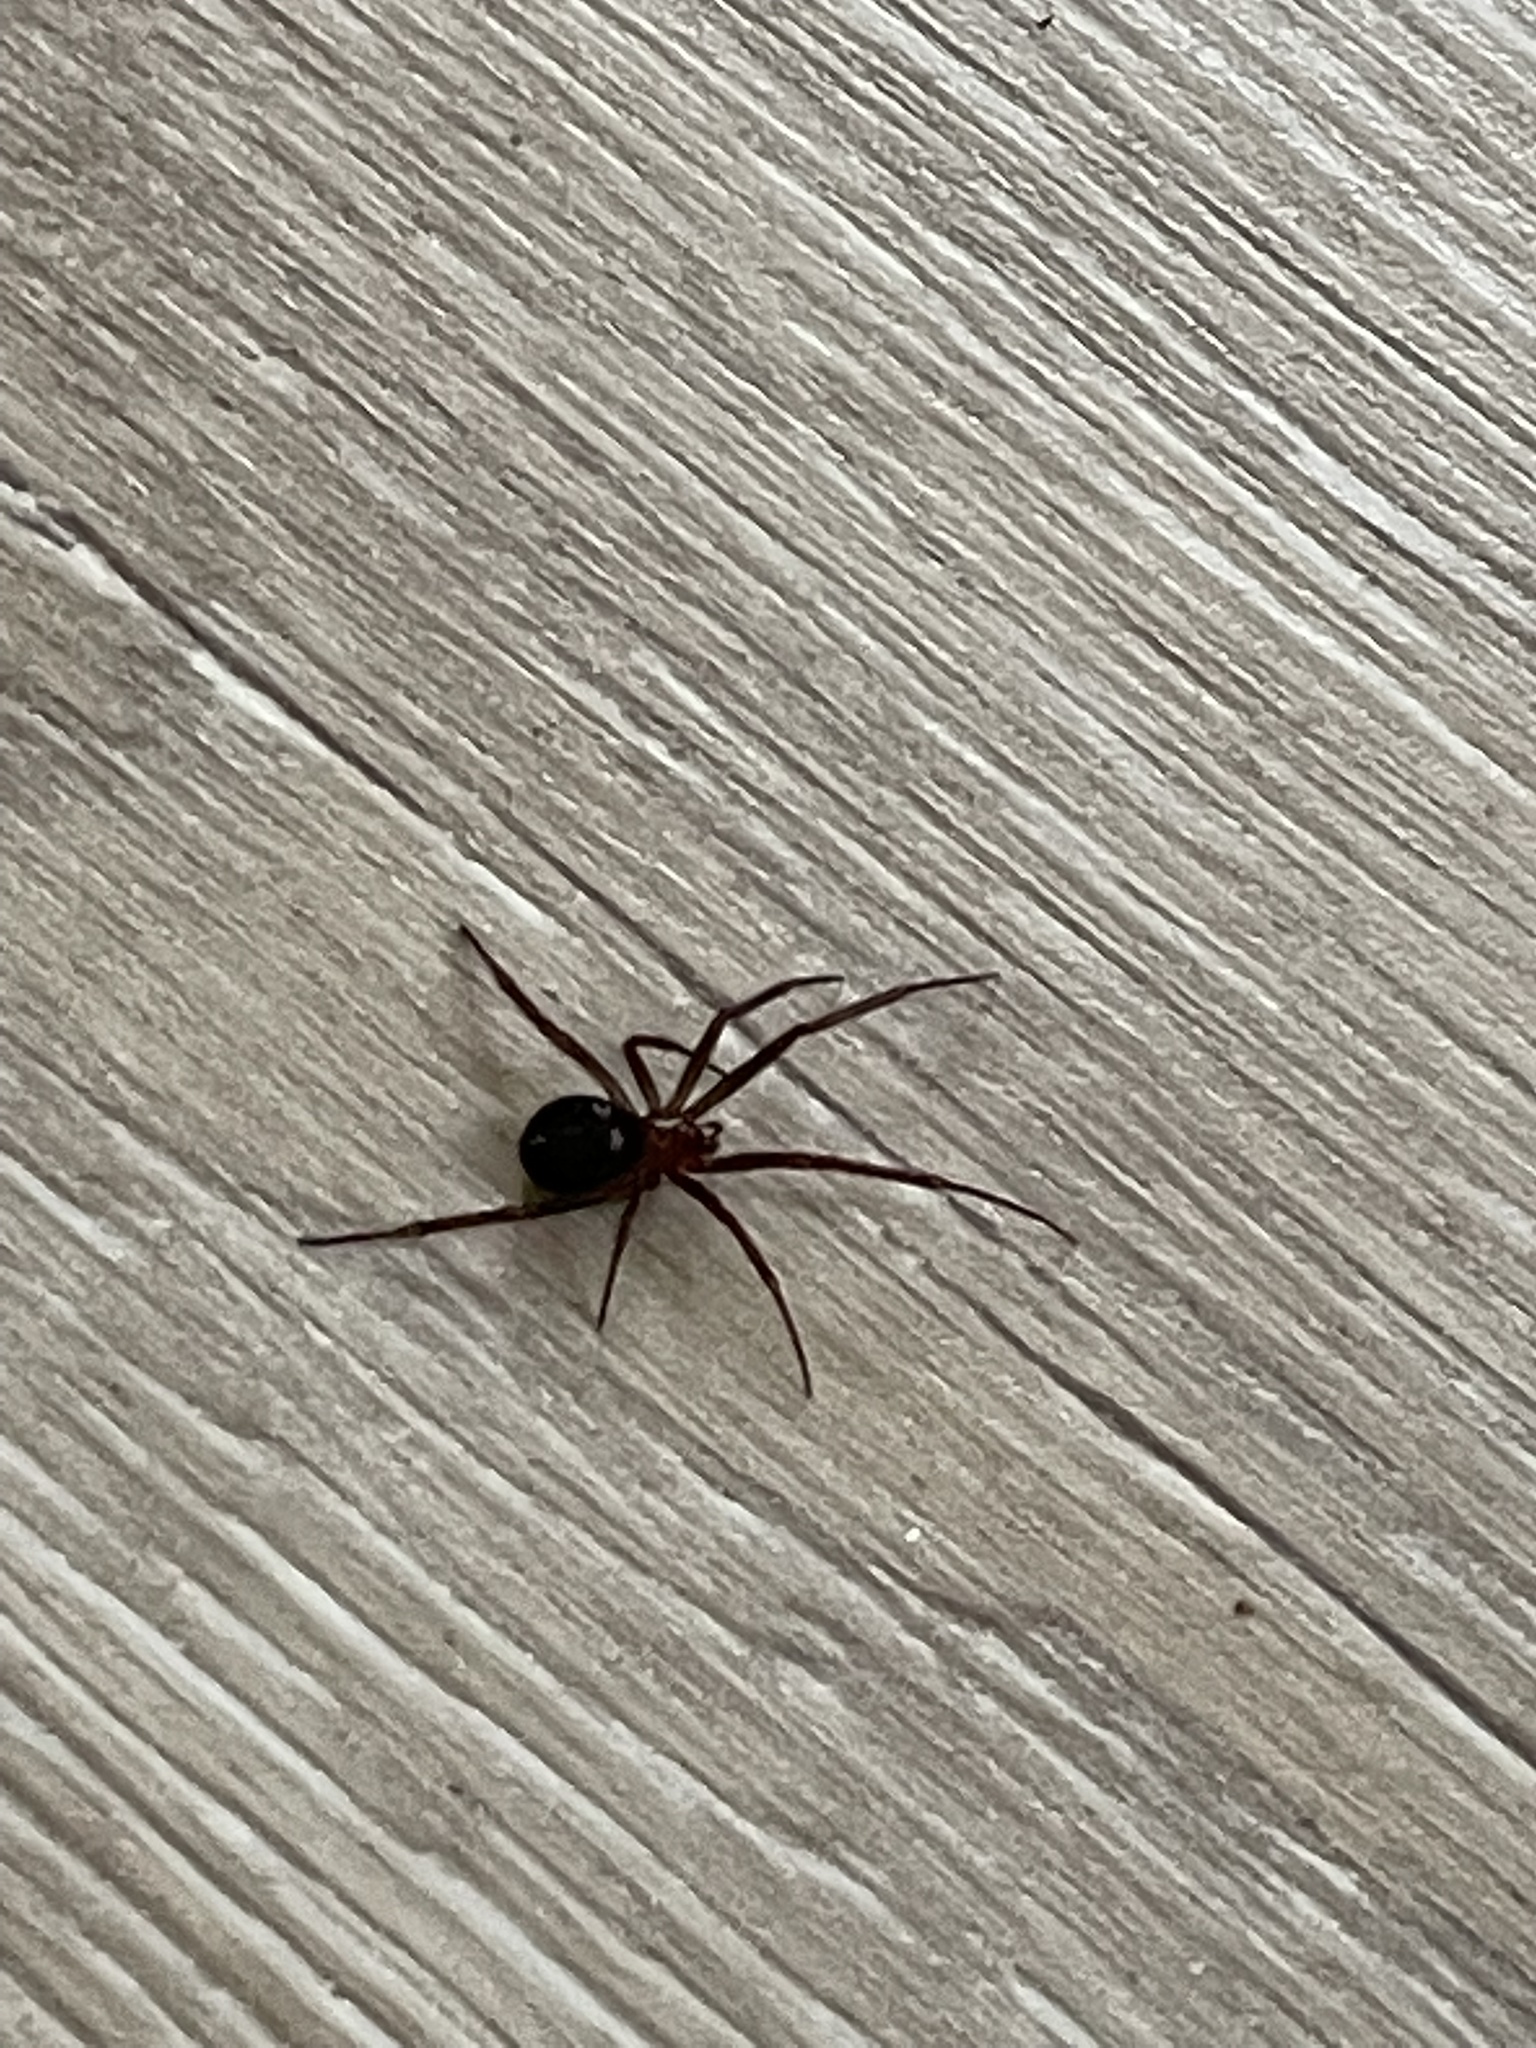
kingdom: Animalia
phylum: Arthropoda
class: Arachnida
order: Araneae
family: Theridiidae
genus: Steatoda
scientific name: Steatoda grossa
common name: False black widow
